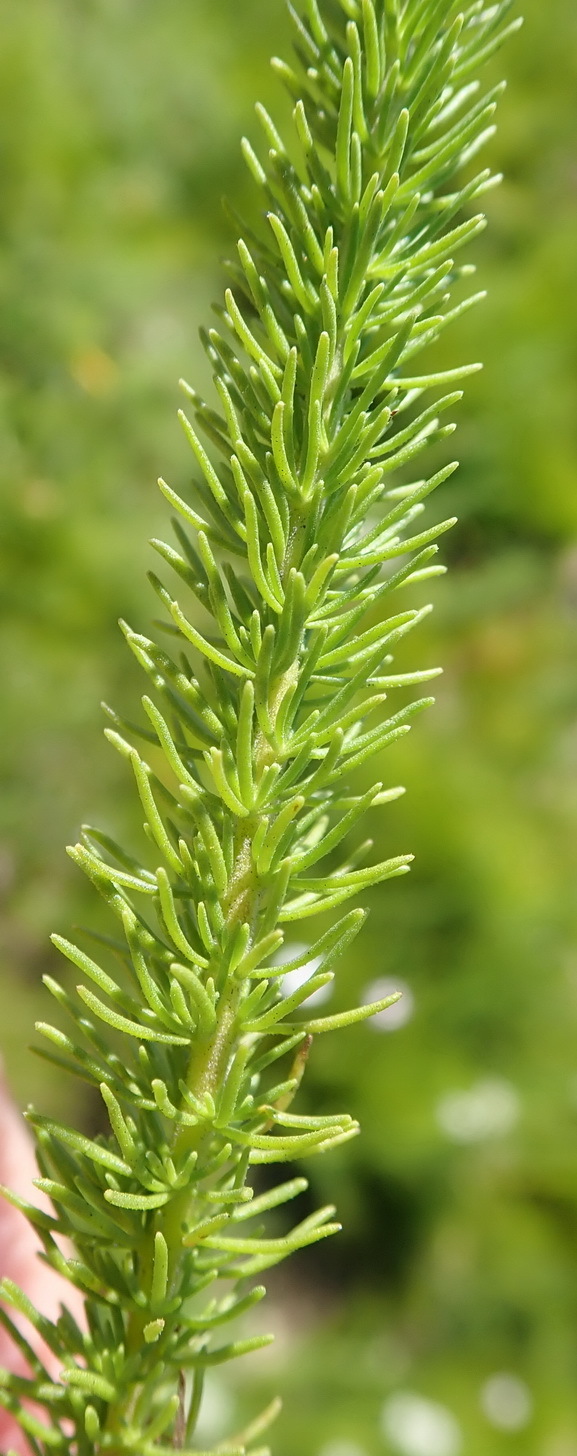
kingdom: Plantae
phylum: Tracheophyta
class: Magnoliopsida
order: Lamiales
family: Scrophulariaceae
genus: Selago
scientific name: Selago corymbosa
